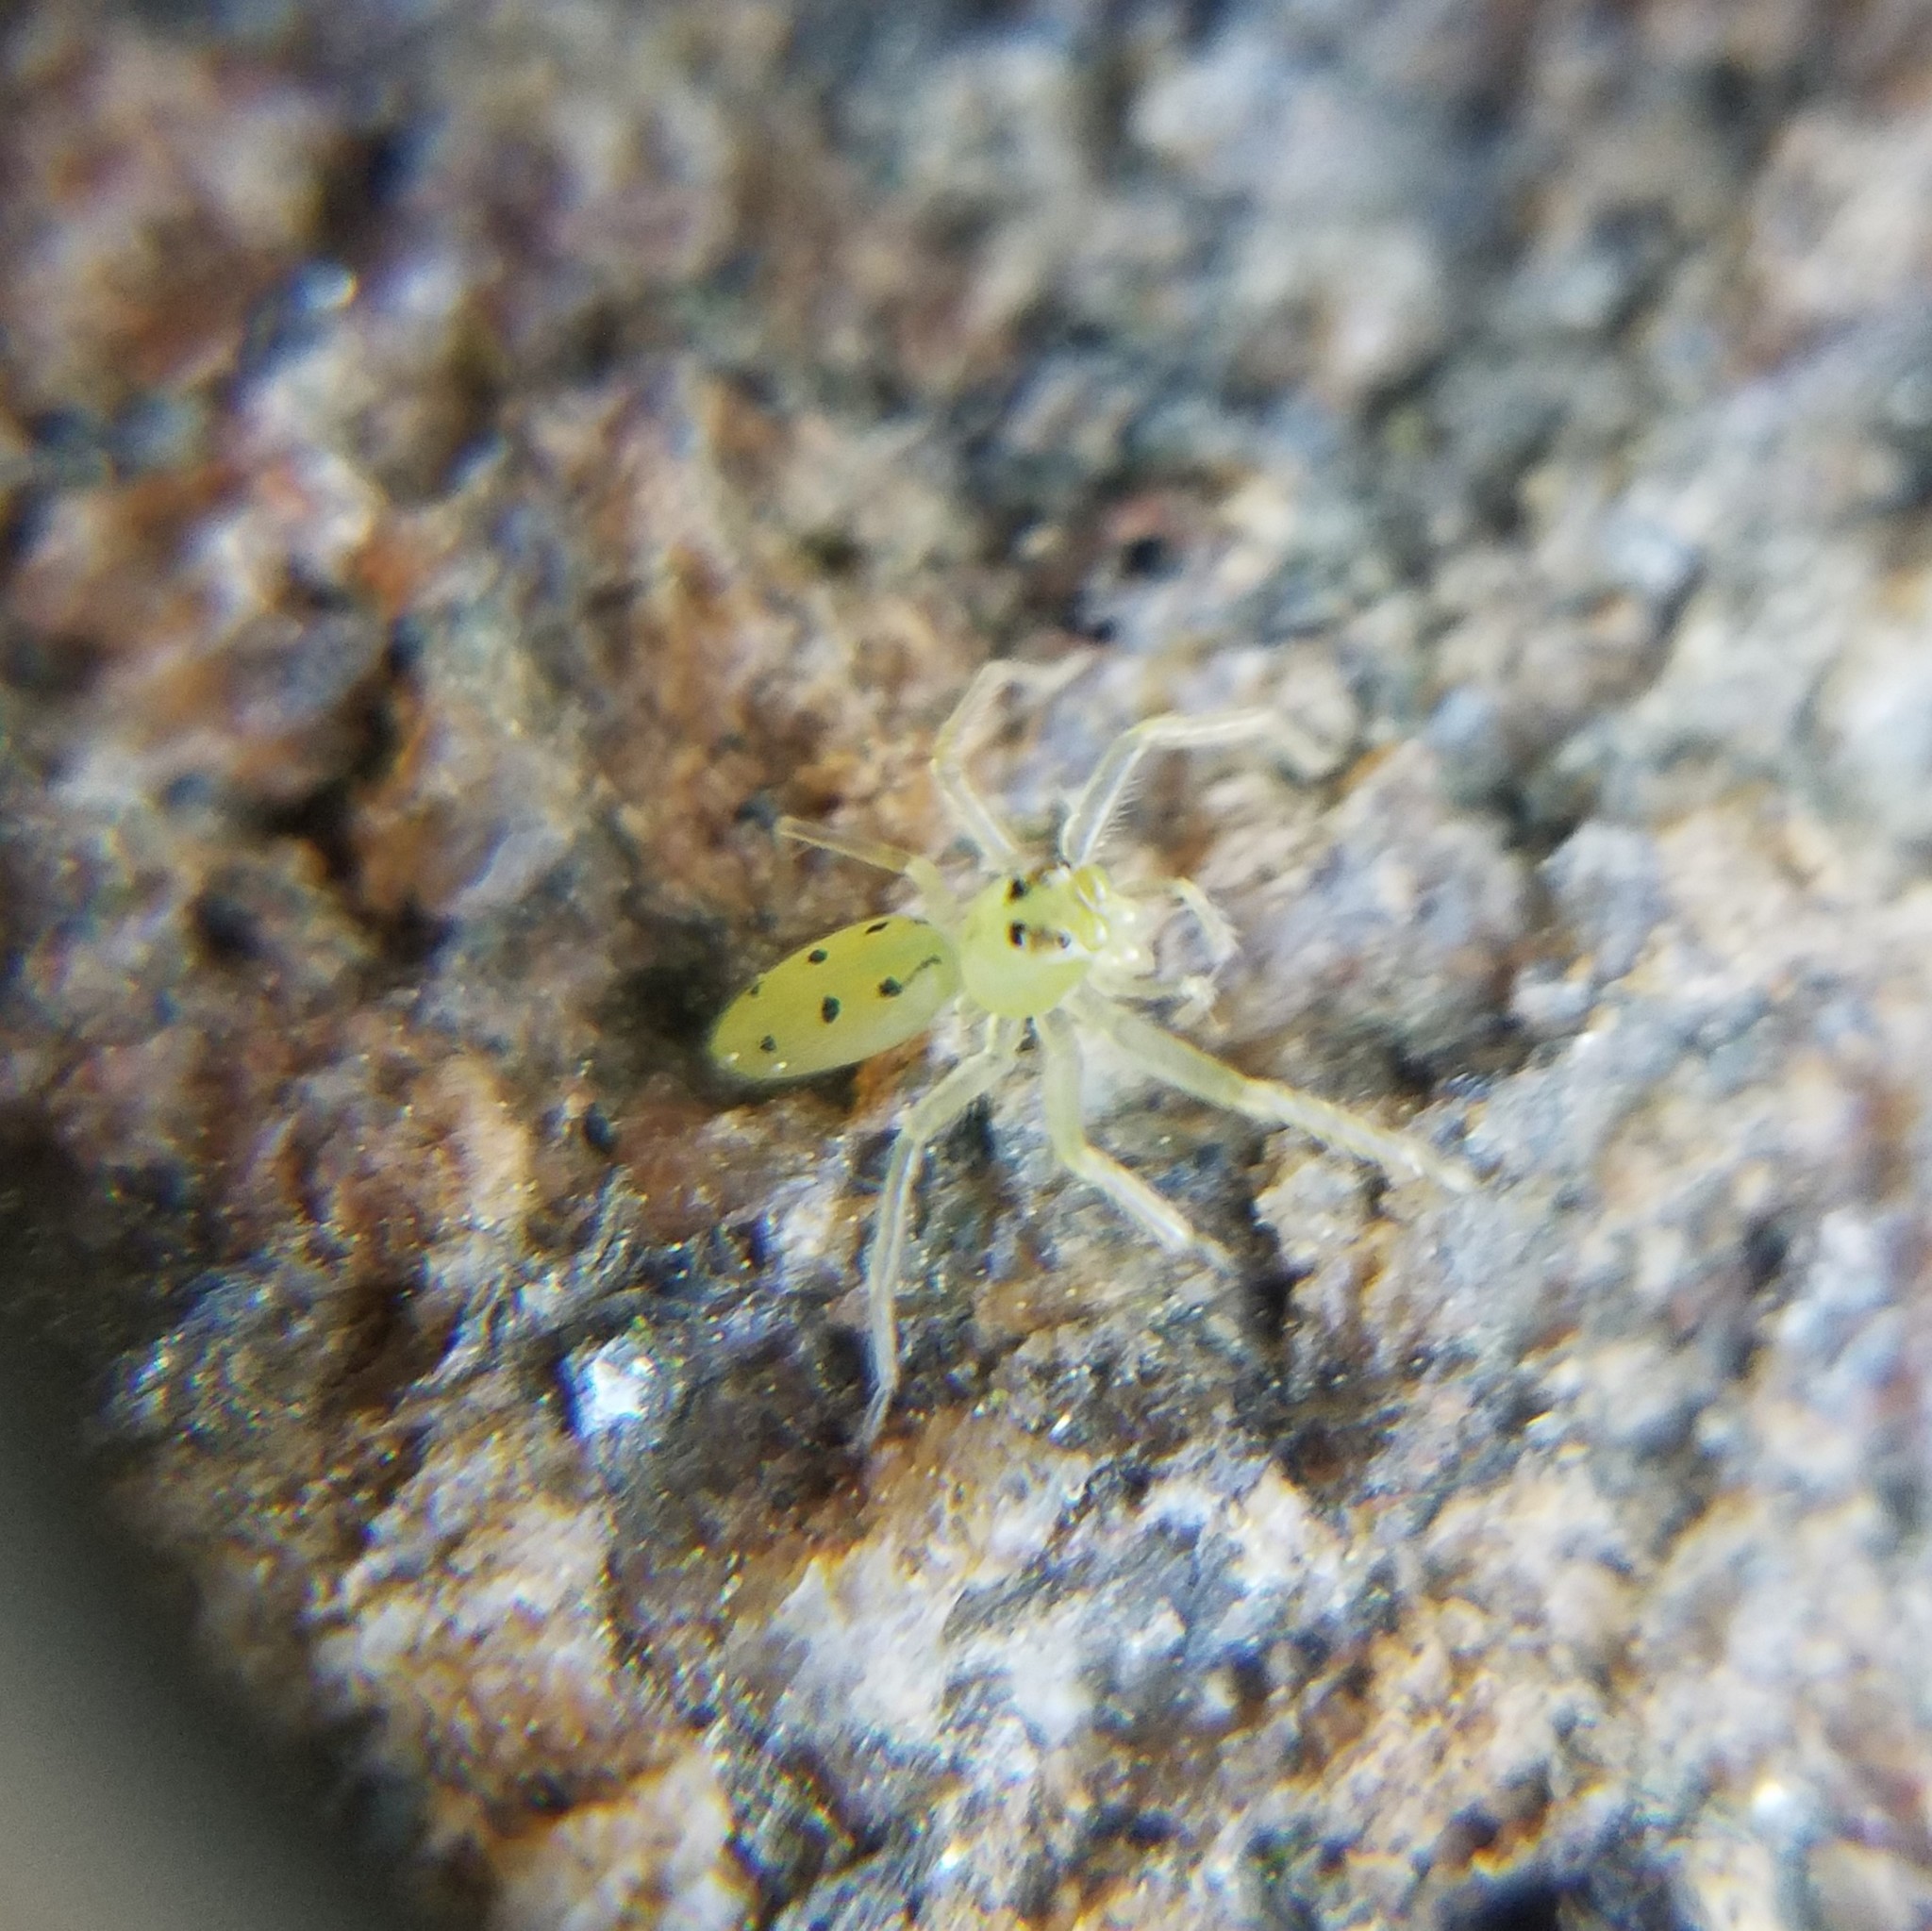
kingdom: Animalia
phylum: Arthropoda
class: Arachnida
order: Araneae
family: Salticidae
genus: Lyssomanes
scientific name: Lyssomanes viridis
